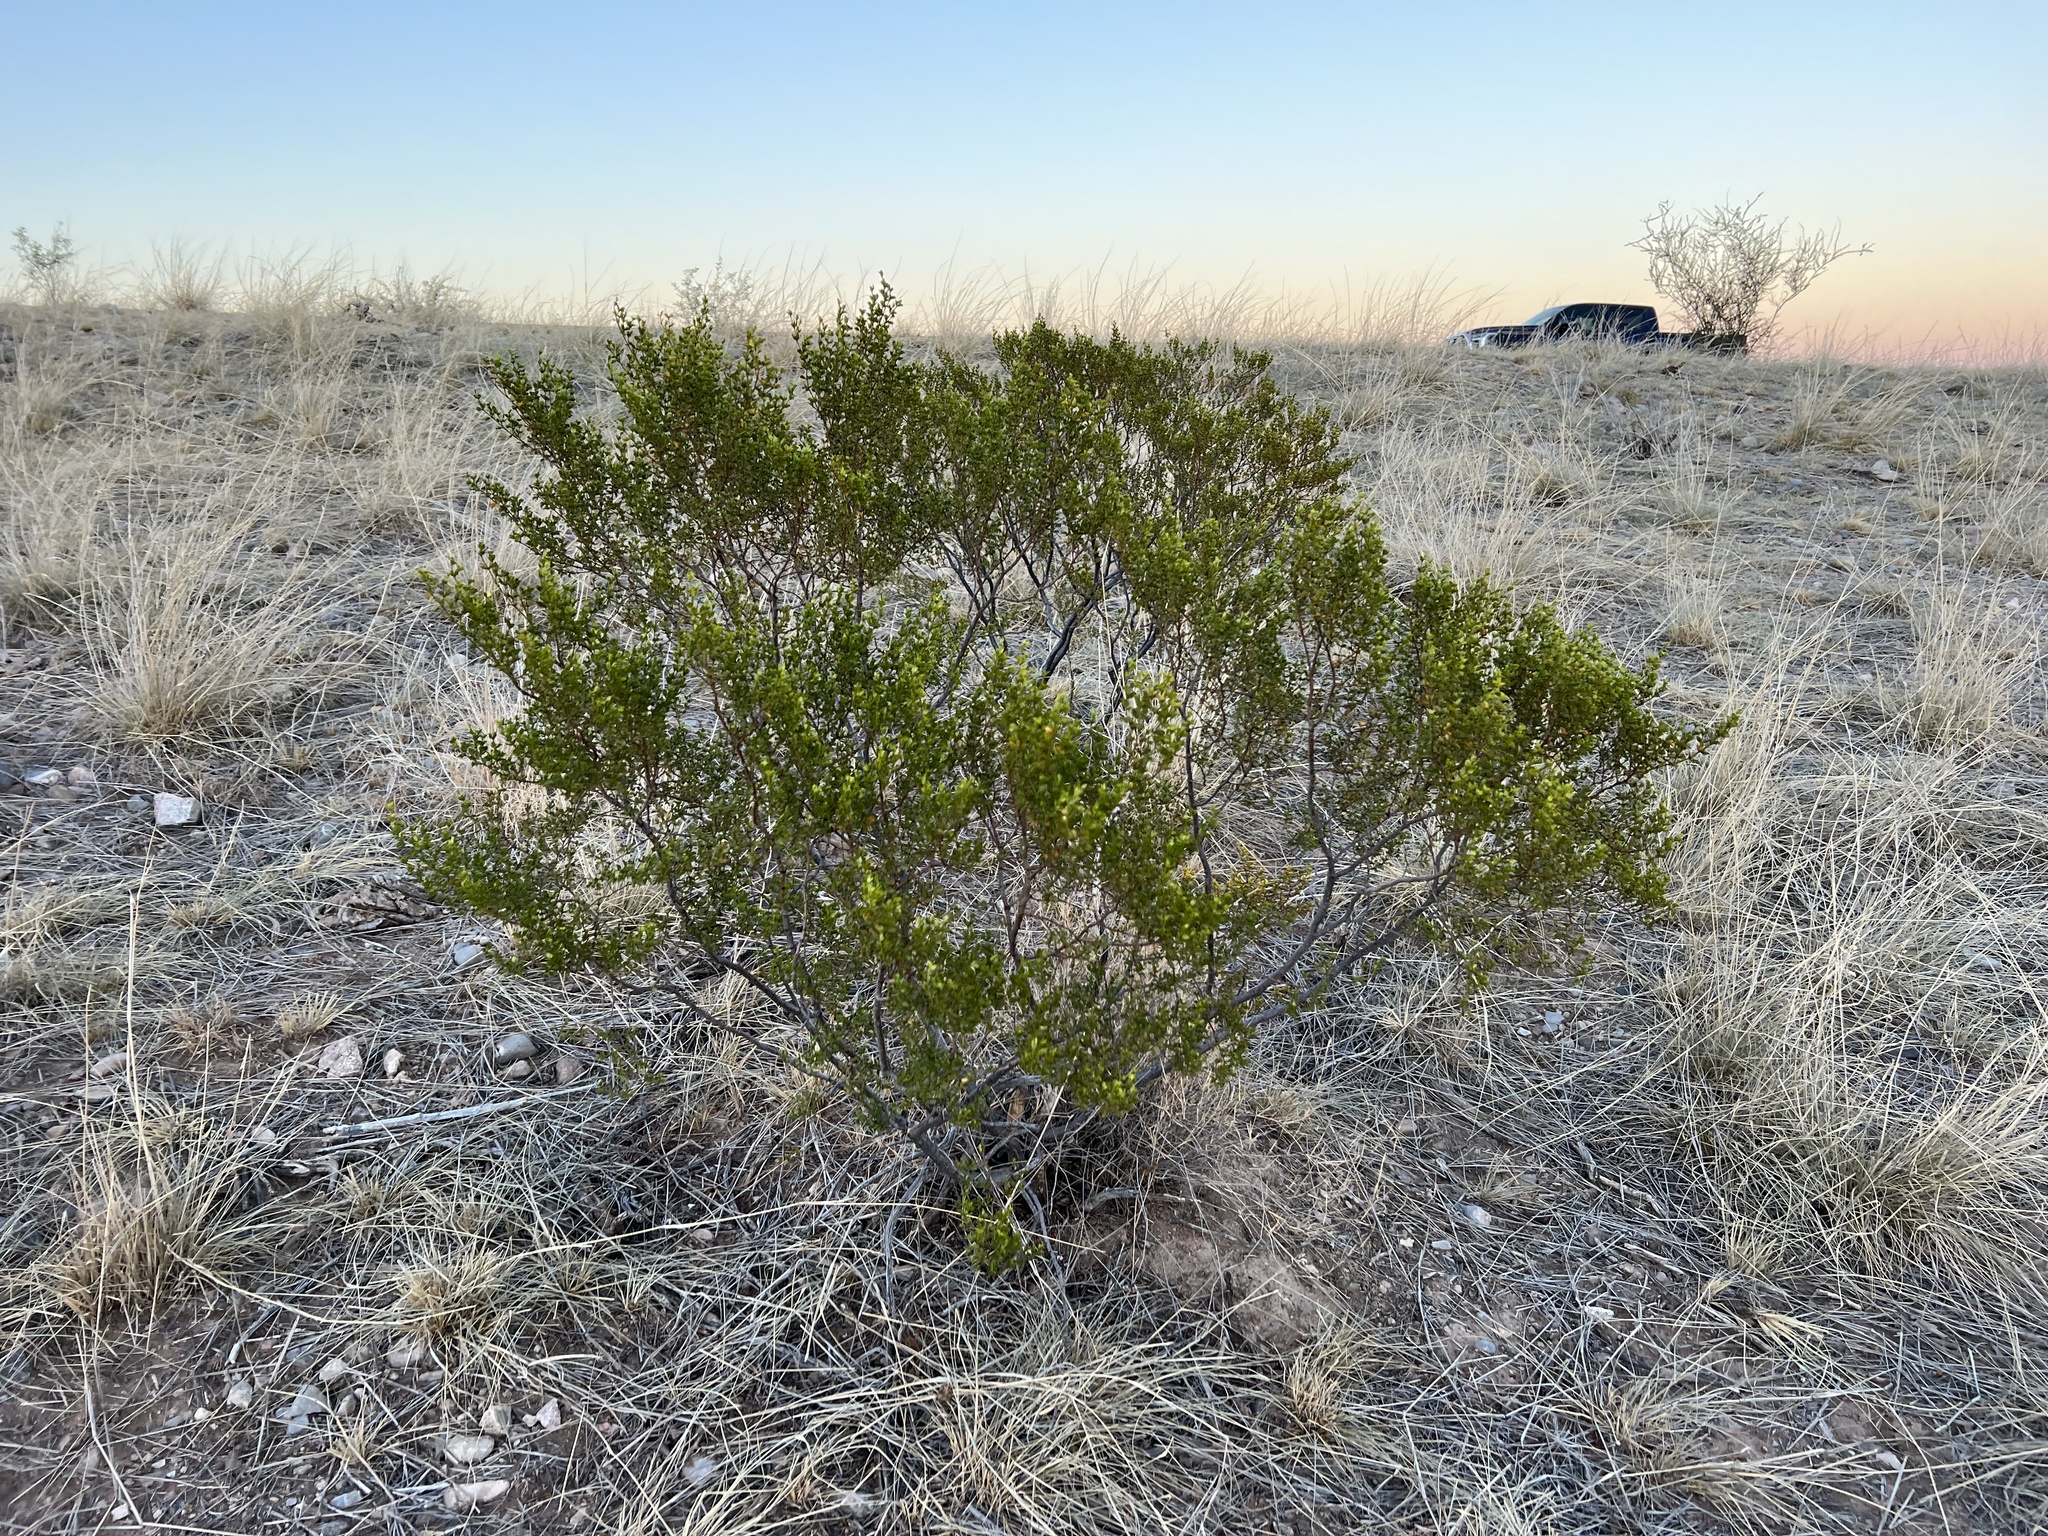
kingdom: Plantae
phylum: Tracheophyta
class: Magnoliopsida
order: Zygophyllales
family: Zygophyllaceae
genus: Larrea
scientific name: Larrea tridentata
